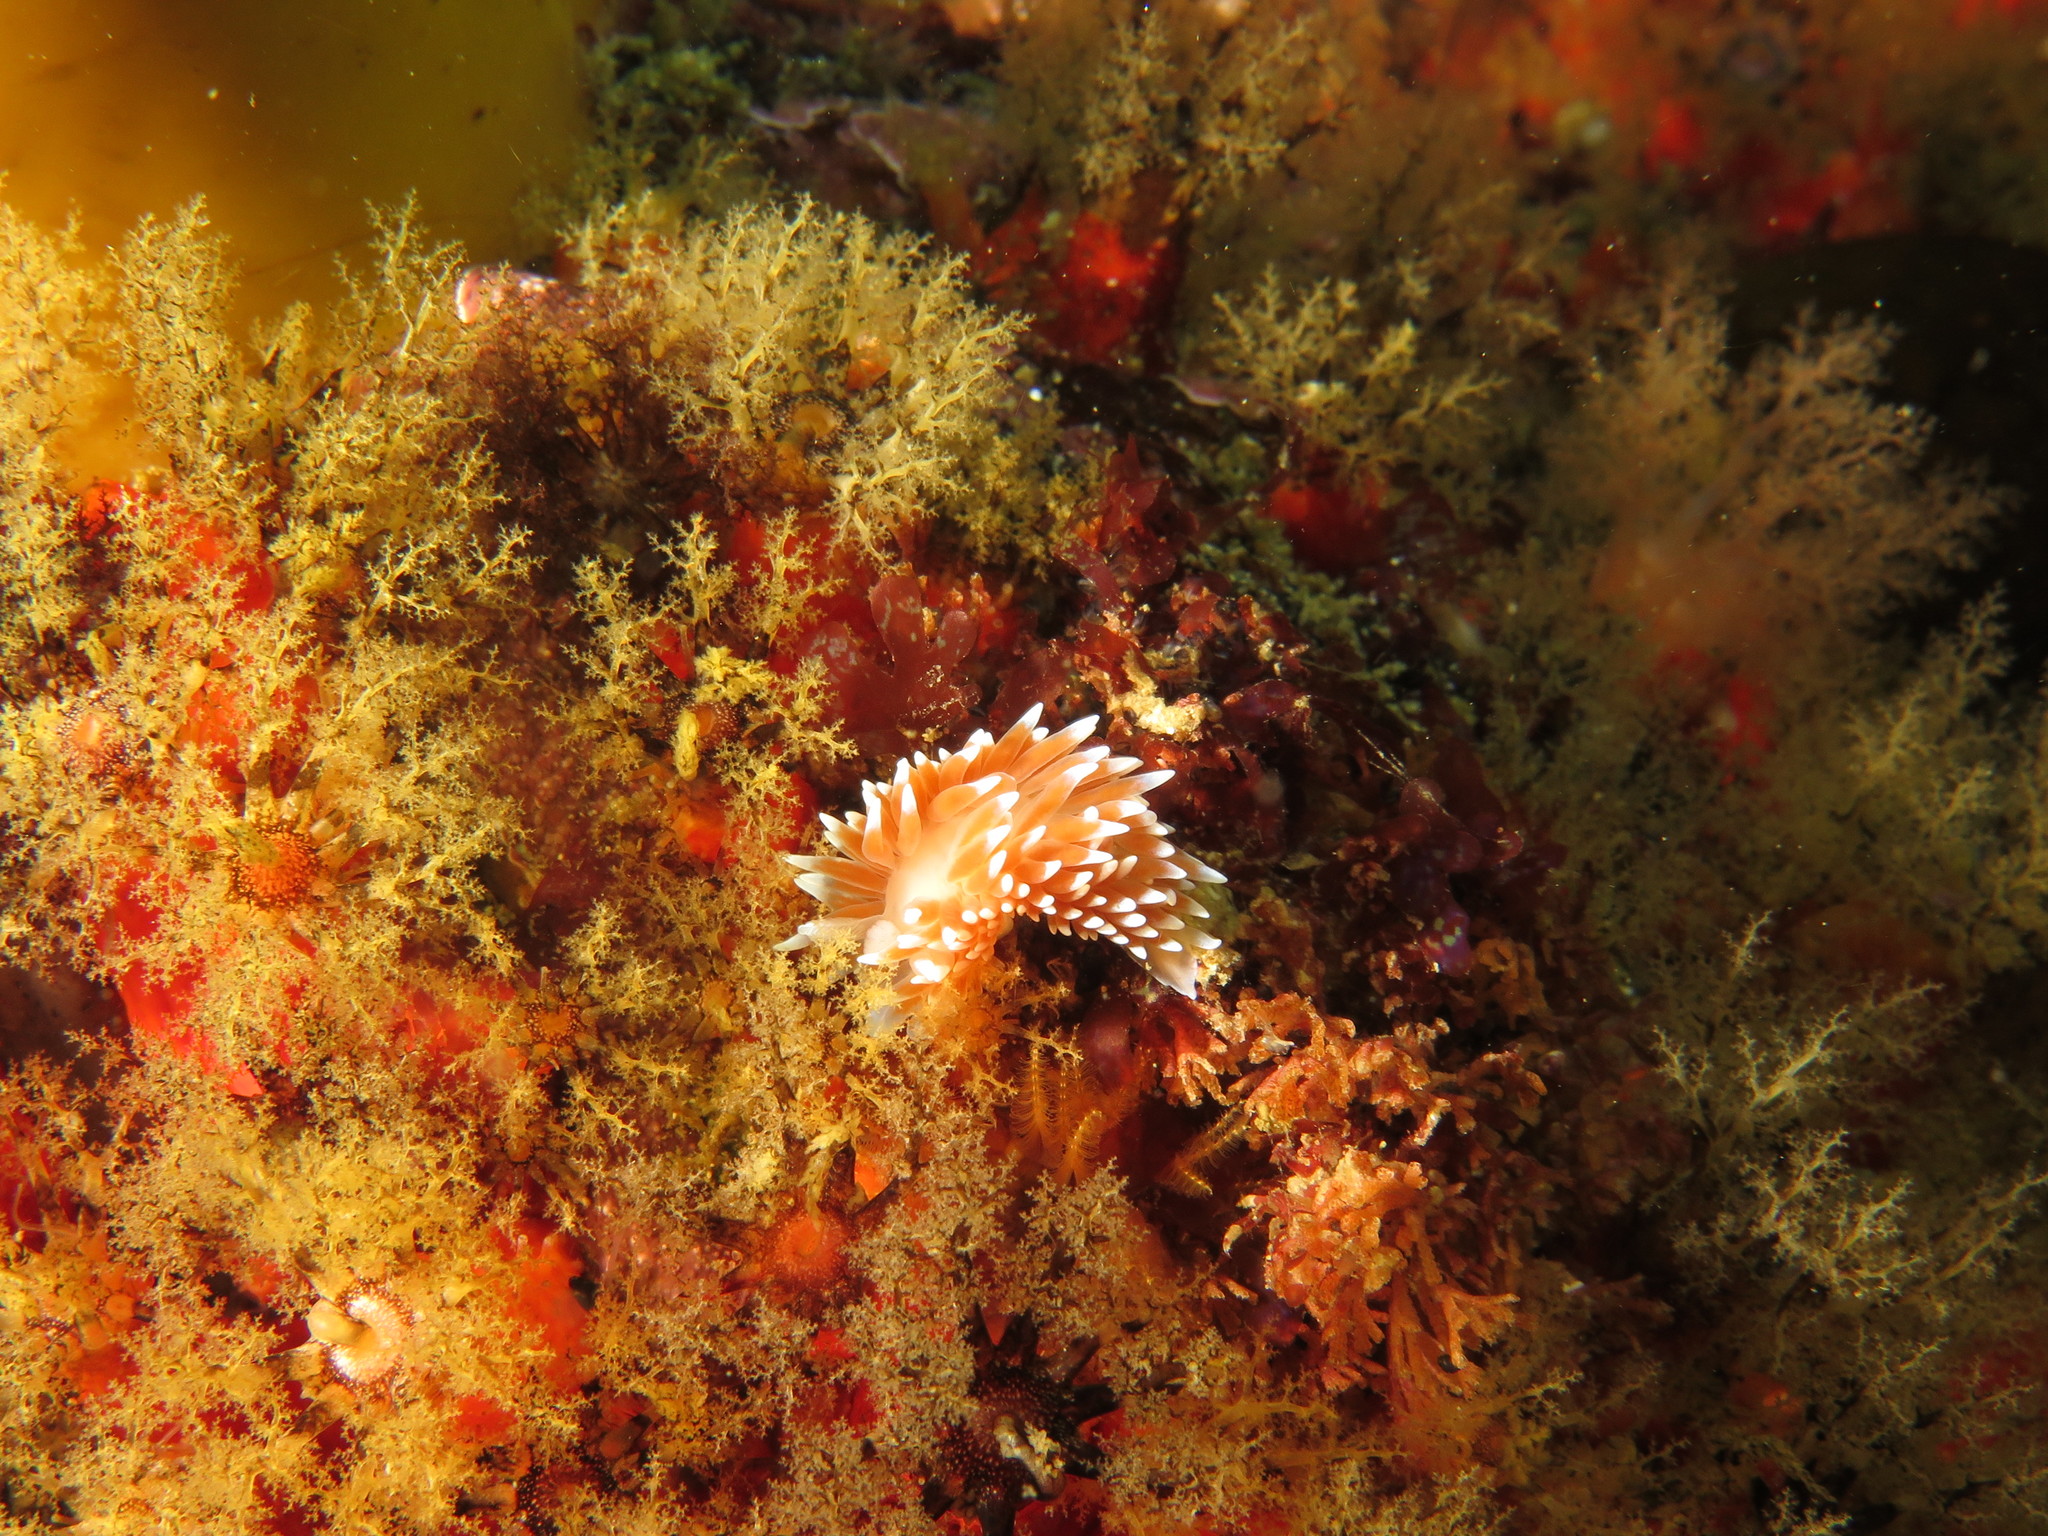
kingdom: Animalia
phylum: Mollusca
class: Gastropoda
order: Nudibranchia
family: Janolidae
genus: Antiopella
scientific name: Antiopella capensis
